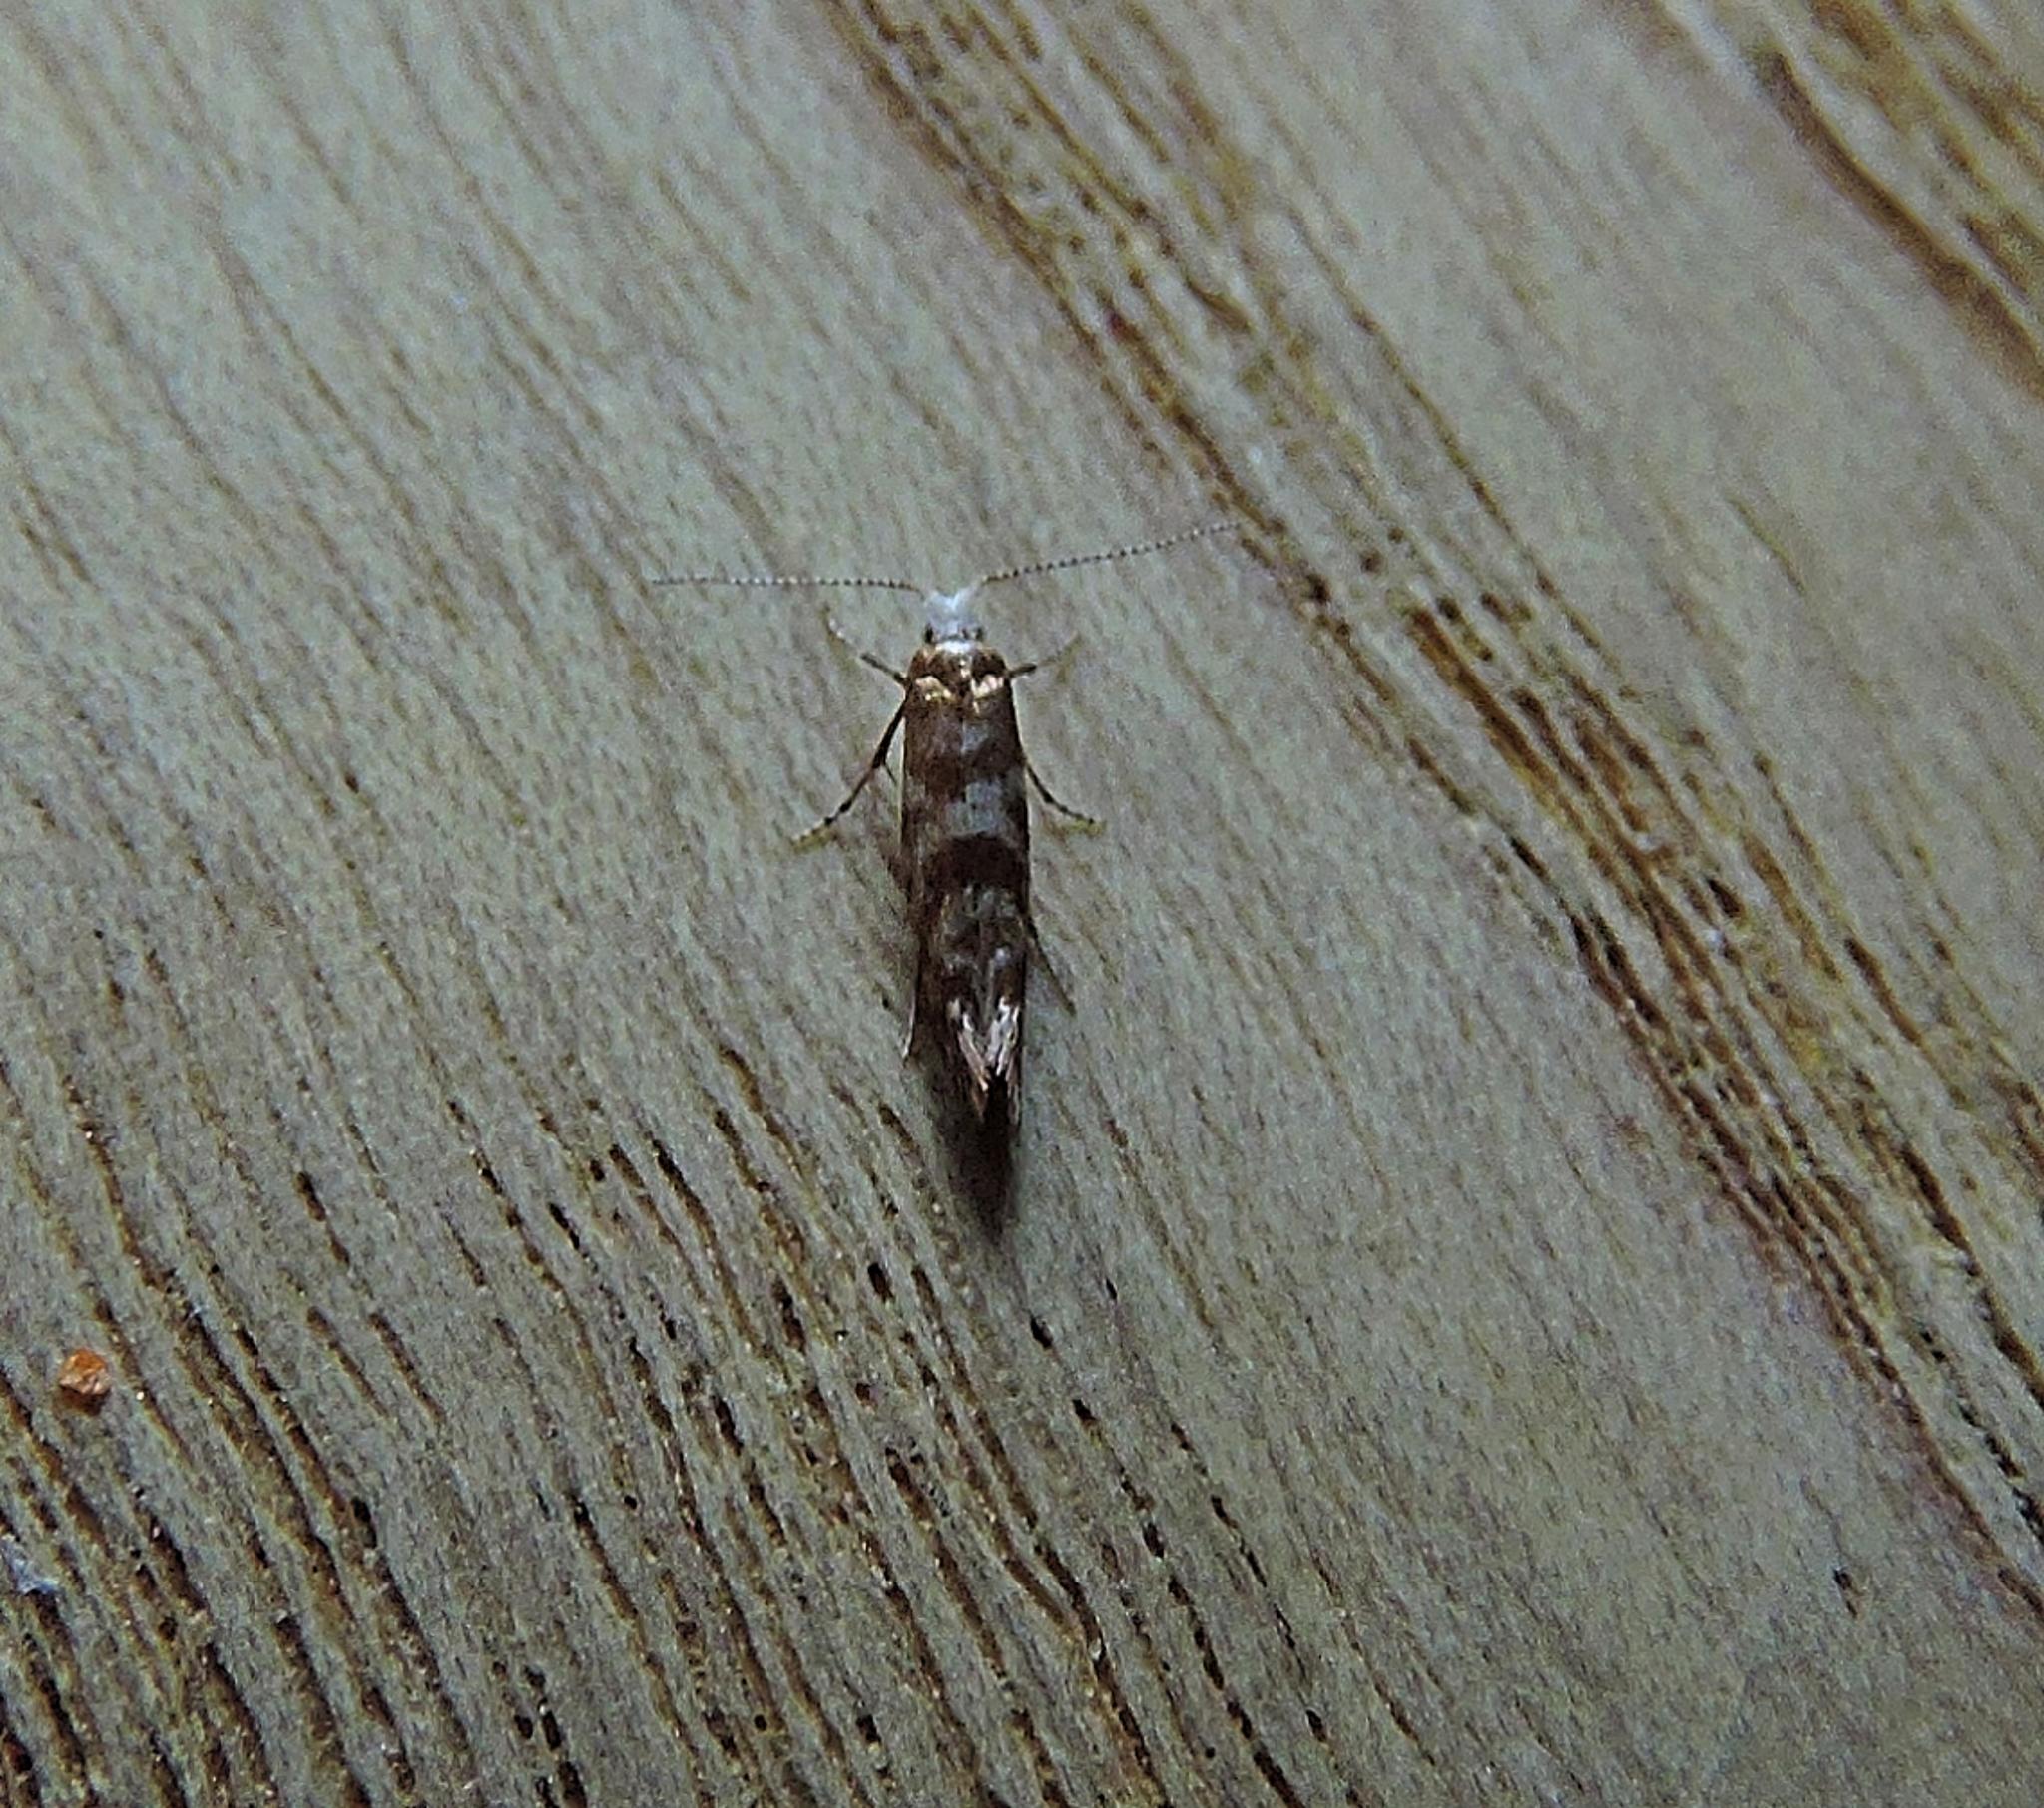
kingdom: Animalia
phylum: Arthropoda
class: Insecta
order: Lepidoptera
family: Argyresthiidae
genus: Argyresthia
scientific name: Argyresthia cupressella
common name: Cypress tip moth
